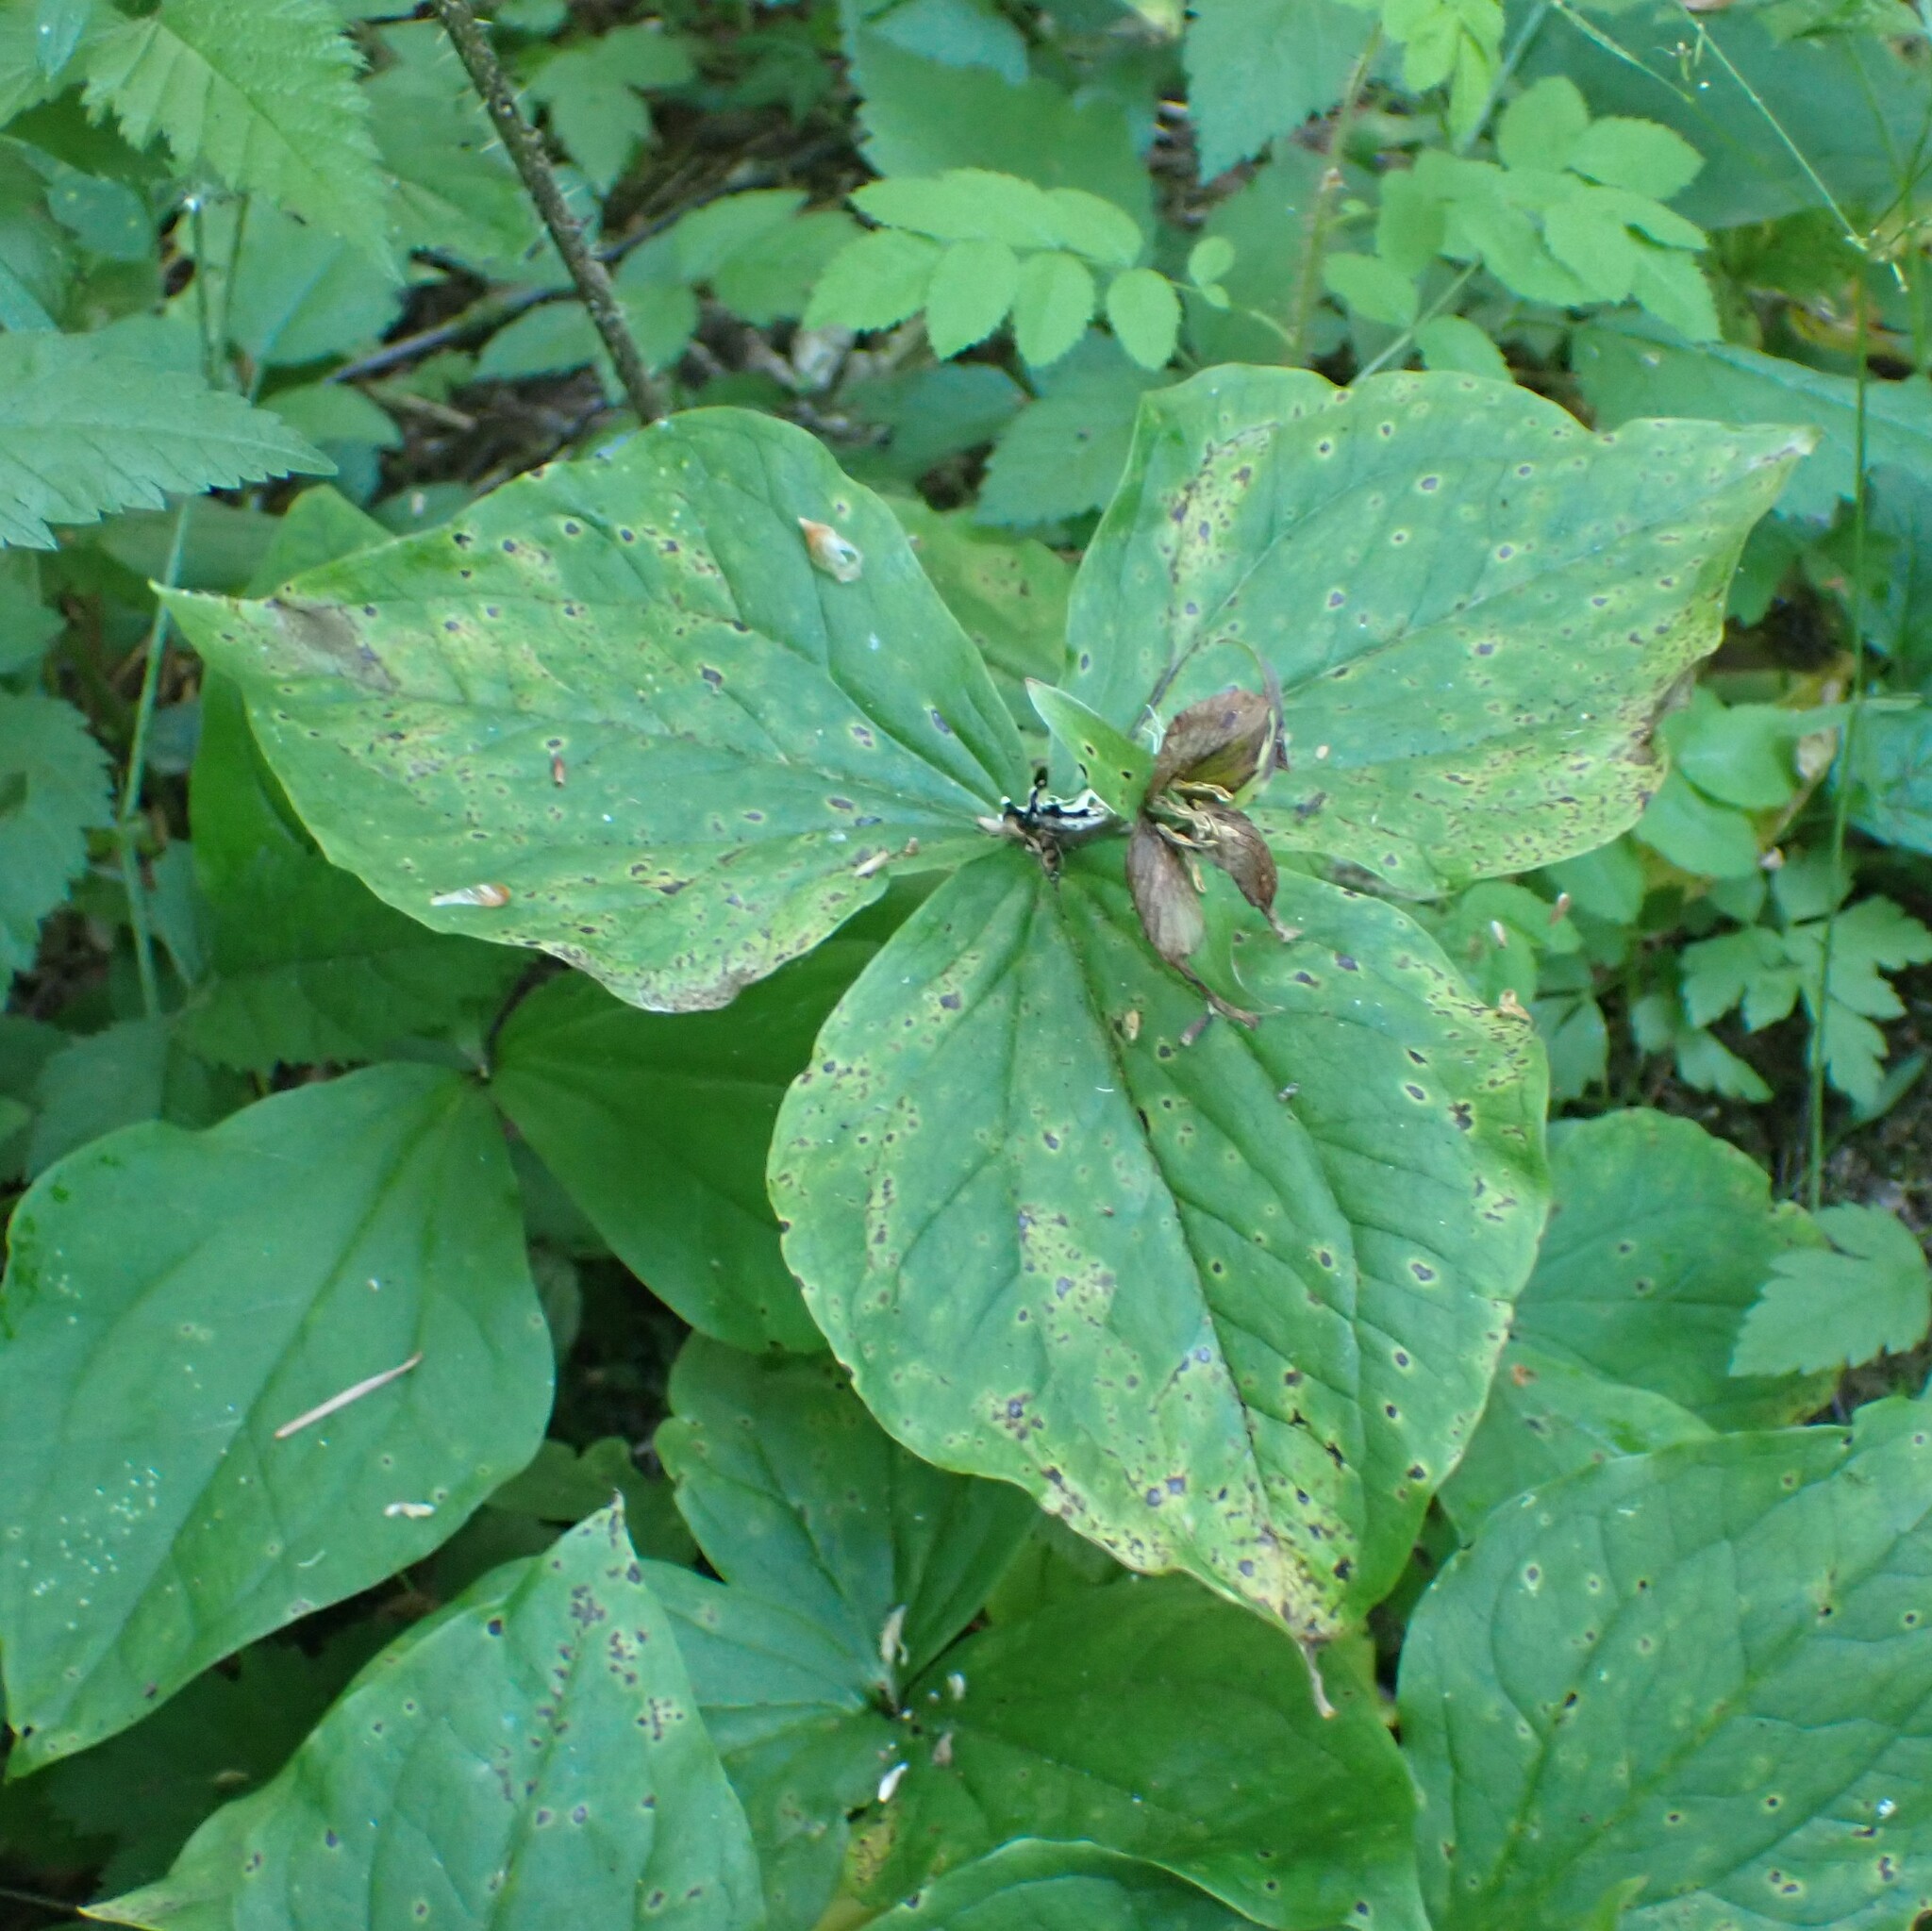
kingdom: Plantae
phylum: Tracheophyta
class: Liliopsida
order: Liliales
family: Melanthiaceae
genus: Trillium
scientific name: Trillium ovatum
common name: Pacific trillium
